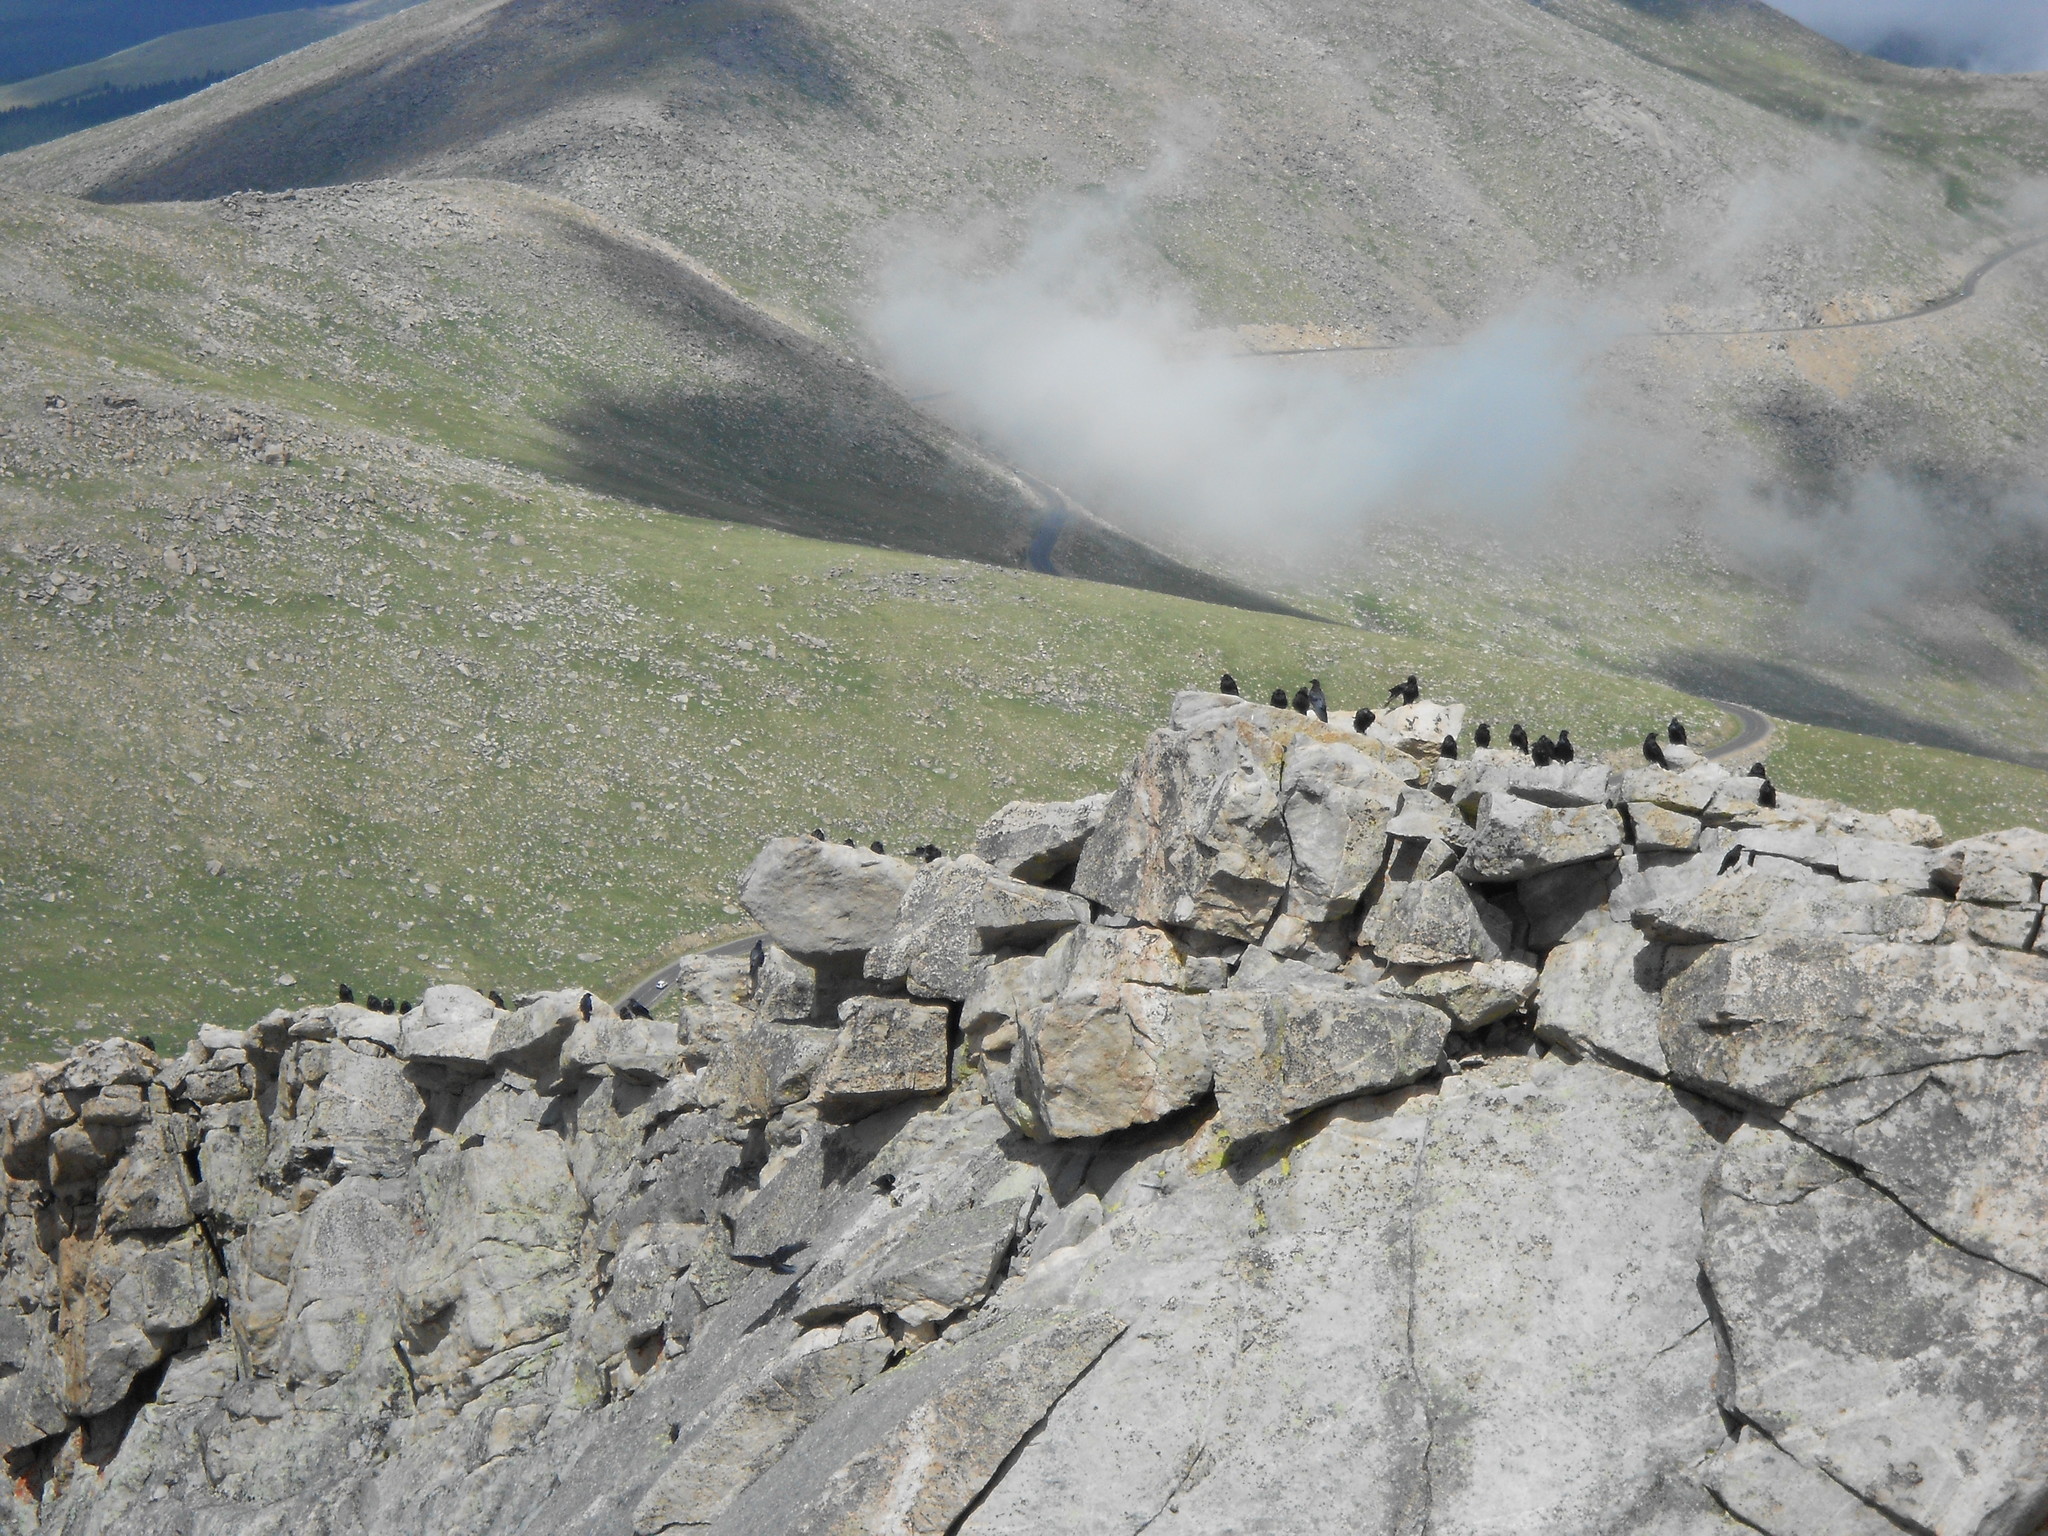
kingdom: Animalia
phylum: Chordata
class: Aves
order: Passeriformes
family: Corvidae
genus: Corvus
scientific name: Corvus brachyrhynchos
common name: American crow
